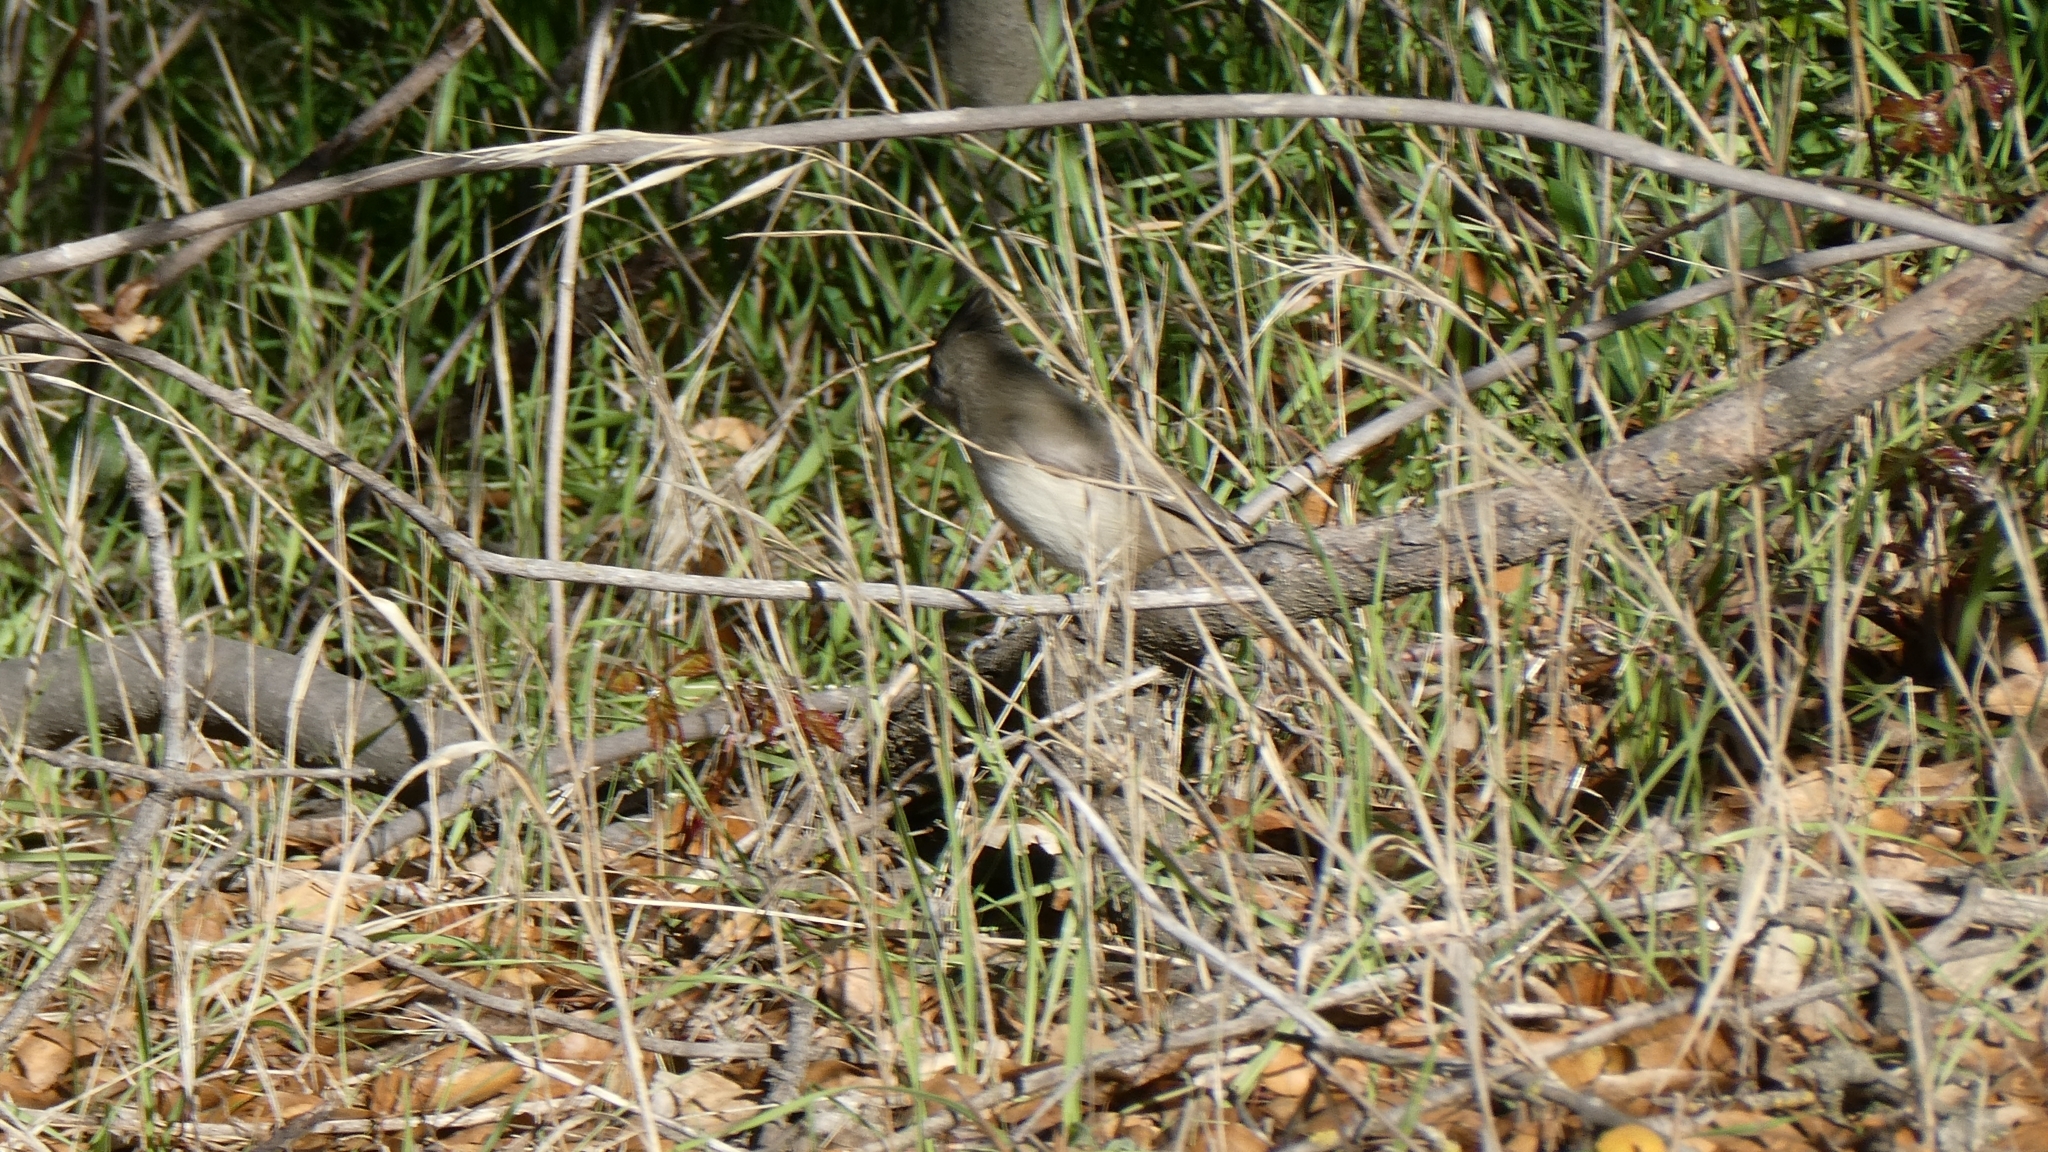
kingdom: Animalia
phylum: Chordata
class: Aves
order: Passeriformes
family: Paridae
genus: Baeolophus
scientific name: Baeolophus inornatus
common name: Oak titmouse
